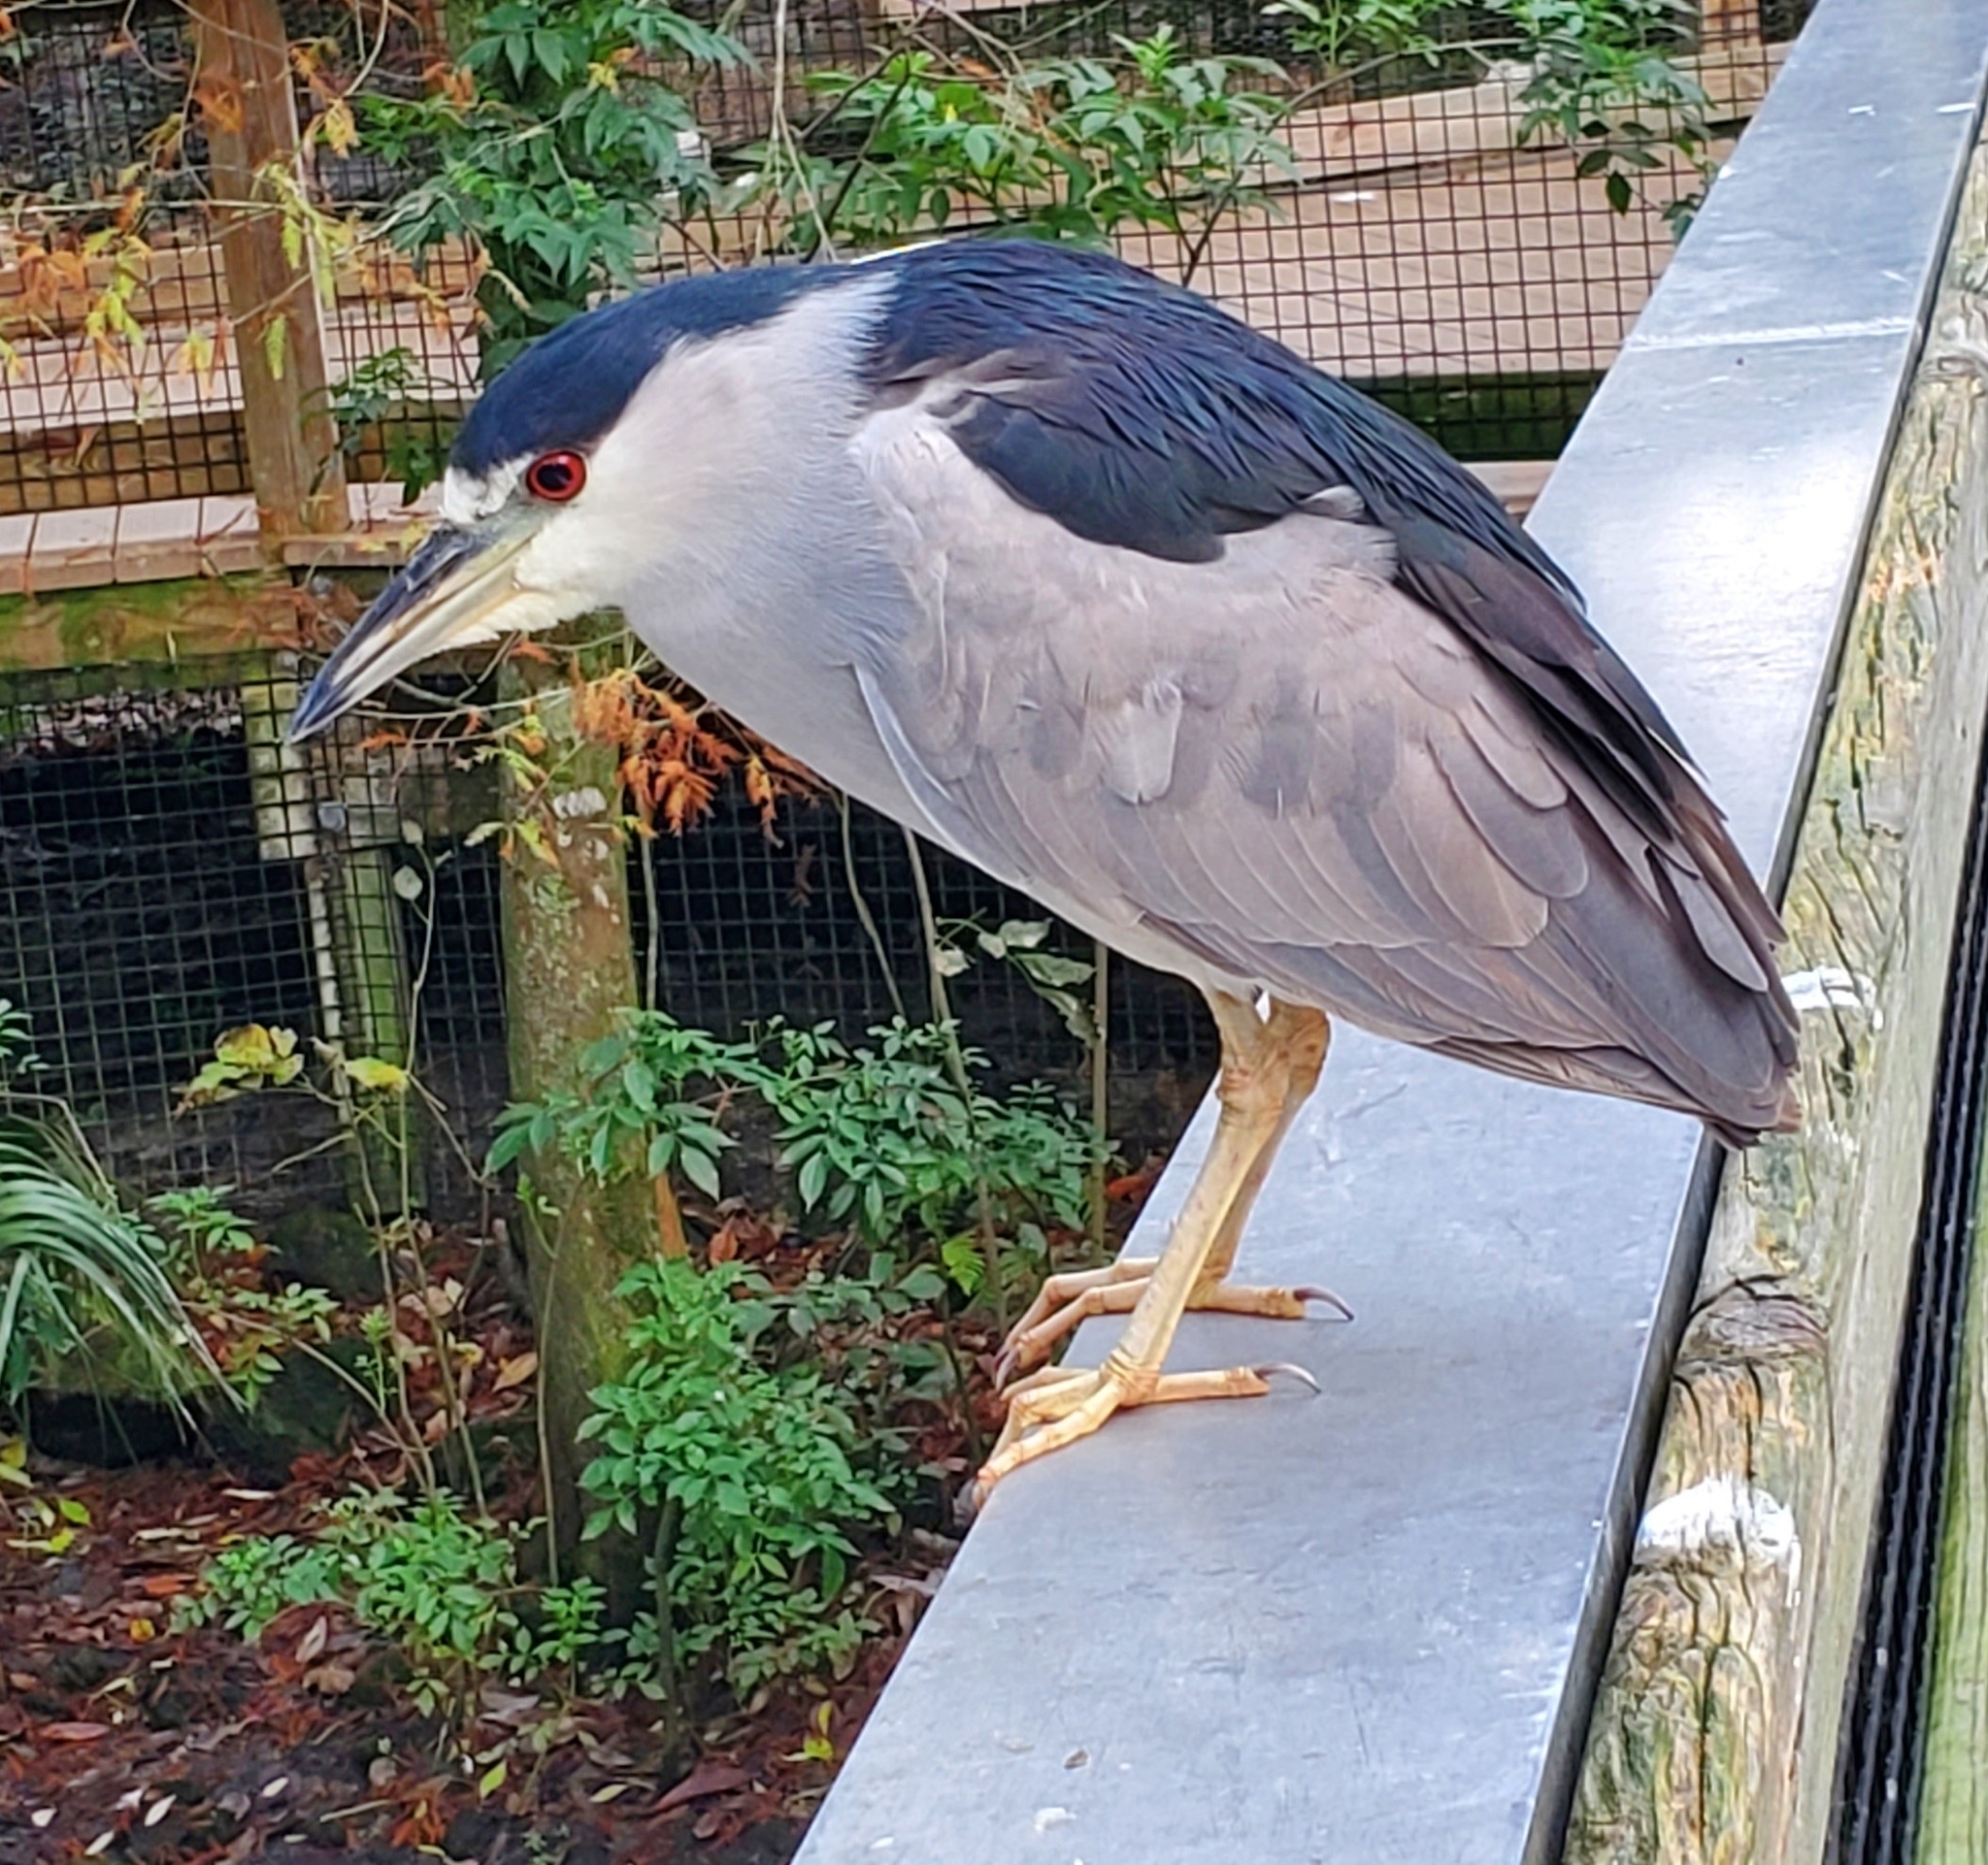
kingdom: Animalia
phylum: Chordata
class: Aves
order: Pelecaniformes
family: Ardeidae
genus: Nycticorax
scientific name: Nycticorax nycticorax
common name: Black-crowned night heron
